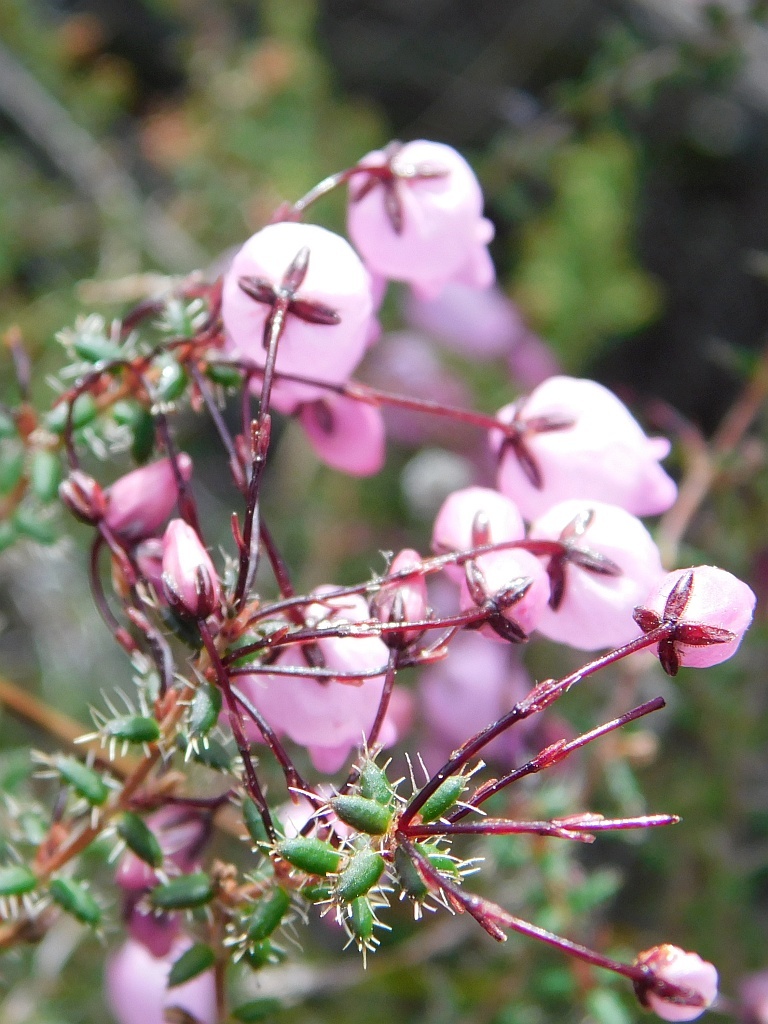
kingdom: Plantae
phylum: Tracheophyta
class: Magnoliopsida
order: Ericales
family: Ericaceae
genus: Erica
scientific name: Erica carduifolia
